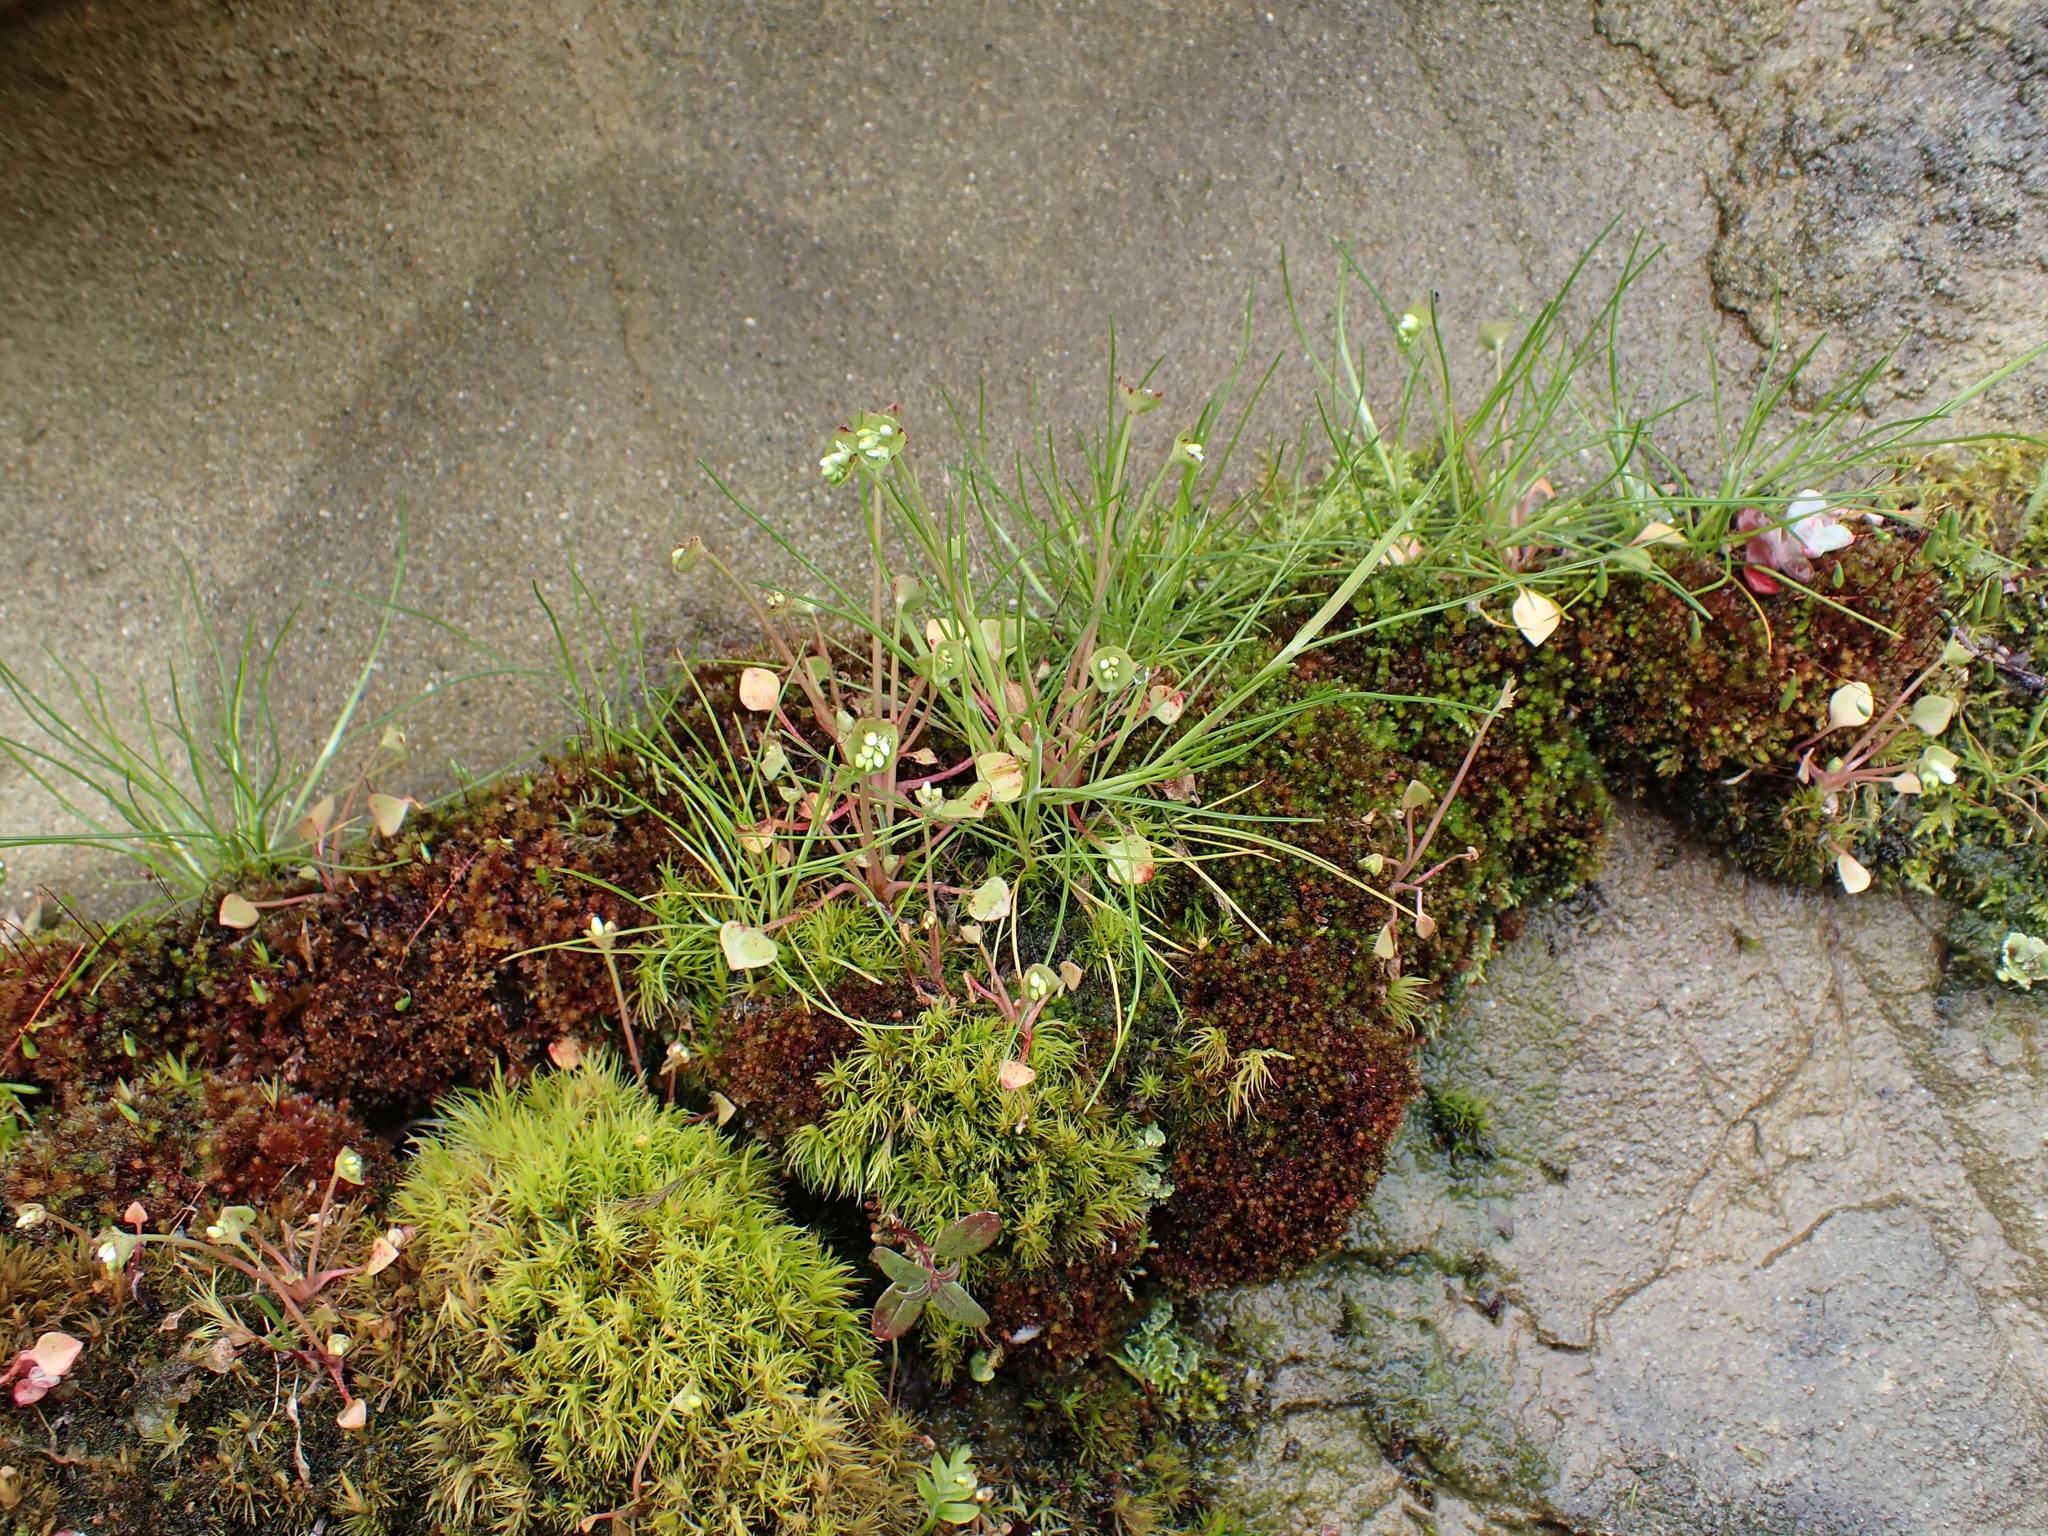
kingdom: Plantae
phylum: Tracheophyta
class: Magnoliopsida
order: Caryophyllales
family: Montiaceae
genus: Claytonia
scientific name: Claytonia rubra
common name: Erubescent miner's-lettuce
